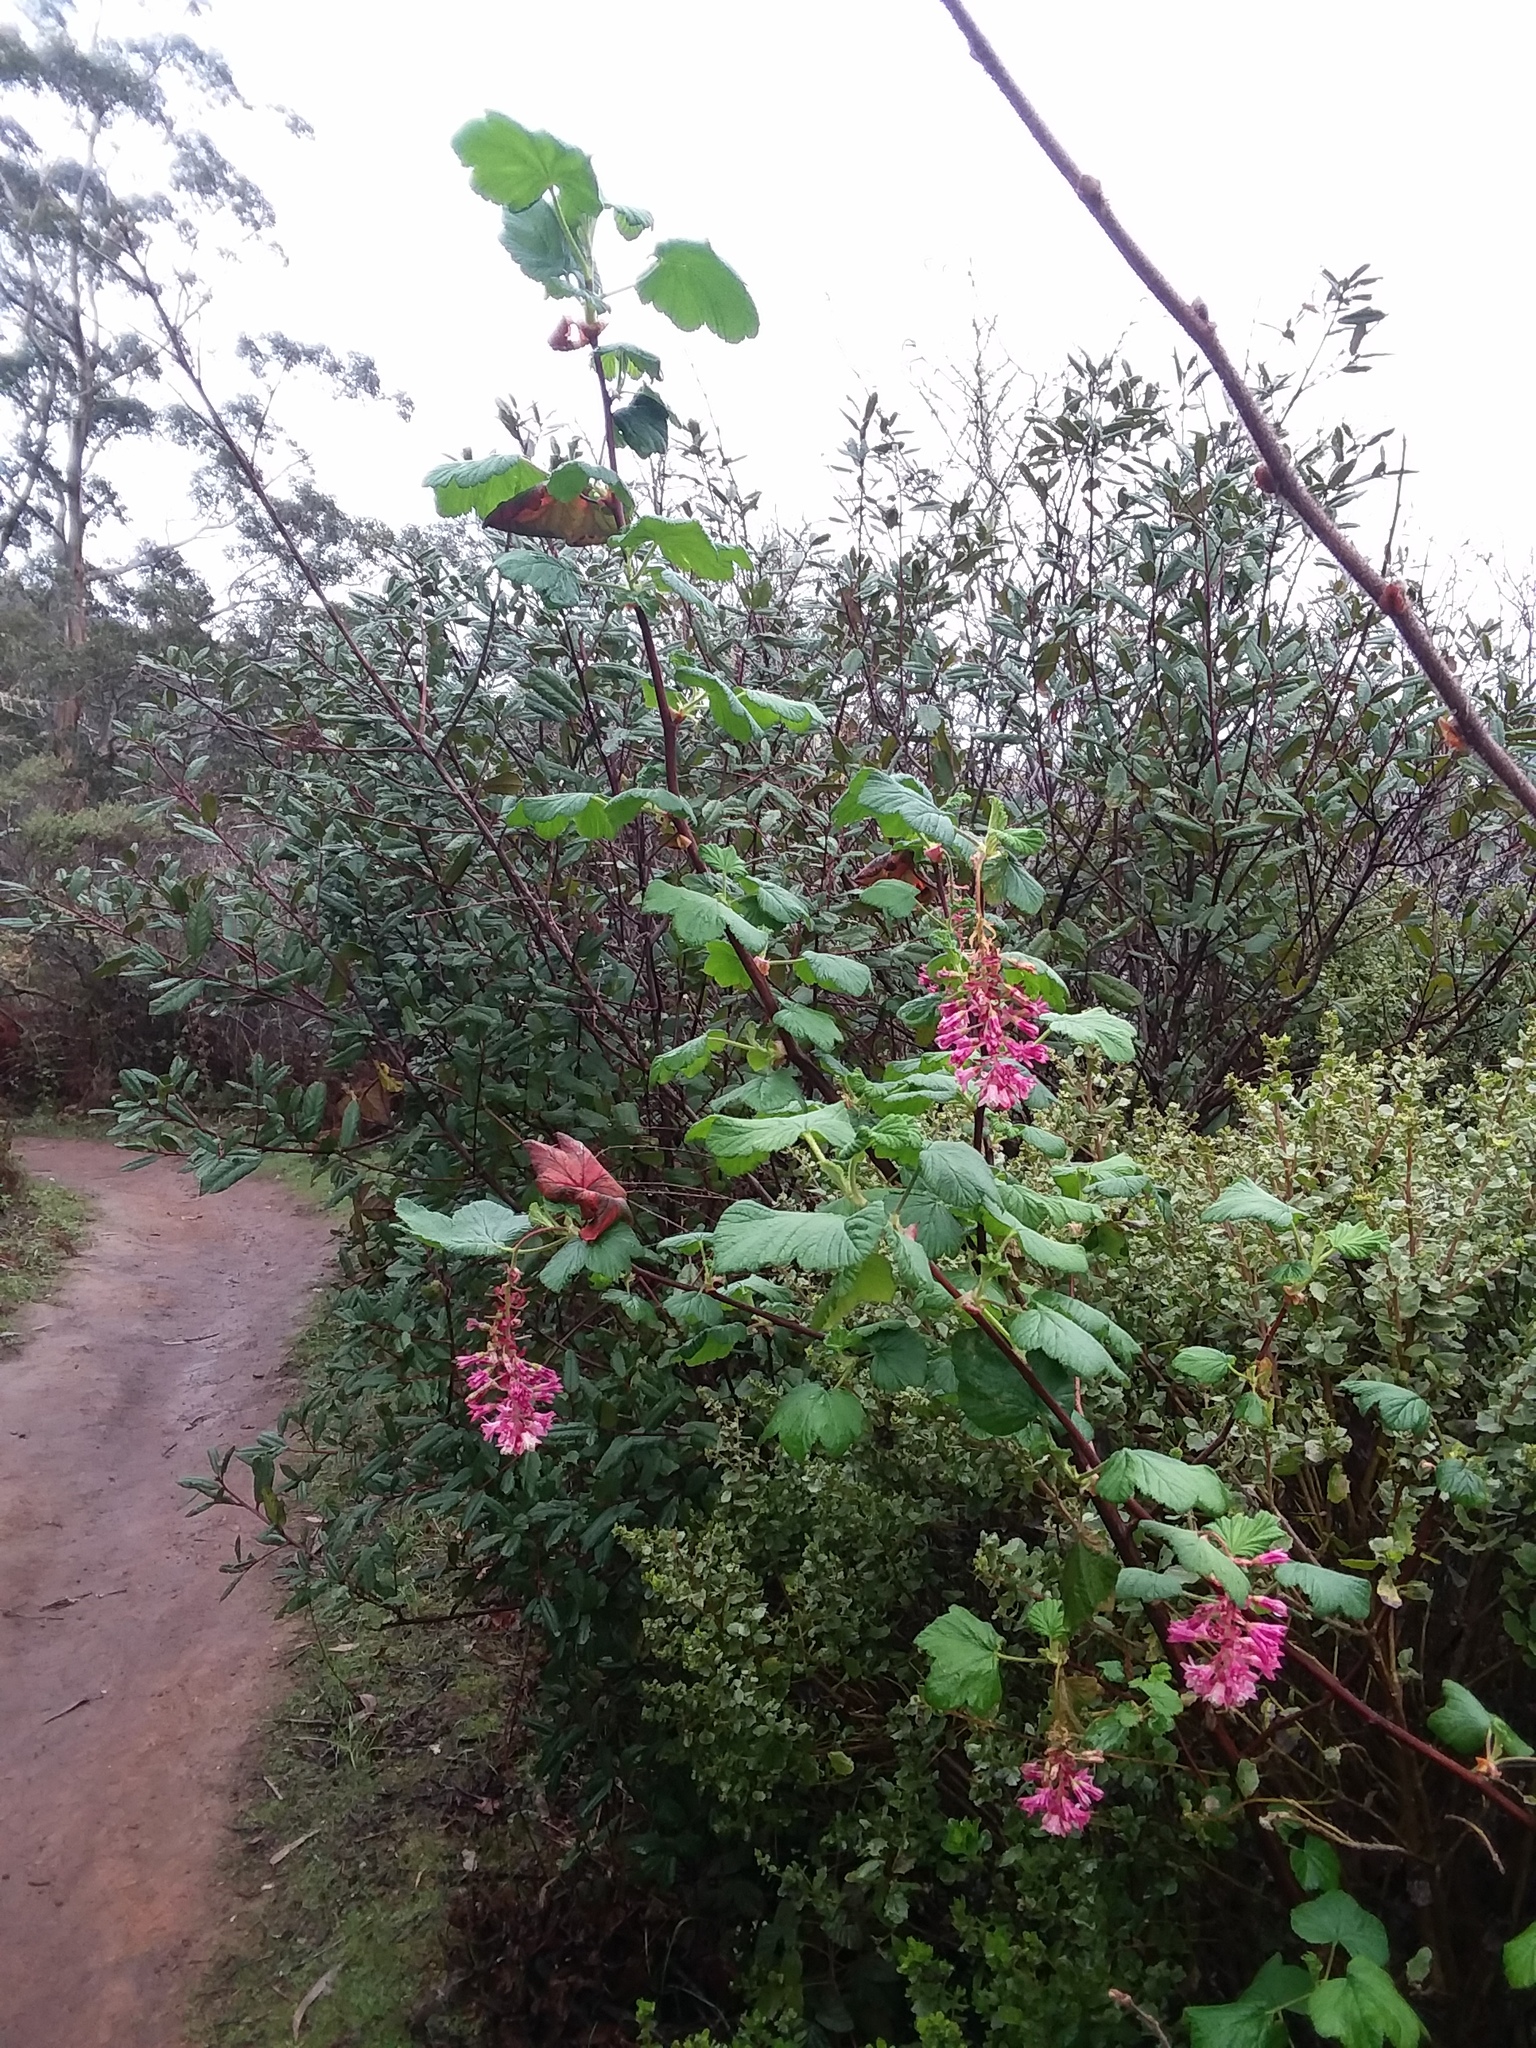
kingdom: Plantae
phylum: Tracheophyta
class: Magnoliopsida
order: Saxifragales
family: Grossulariaceae
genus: Ribes
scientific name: Ribes sanguineum
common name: Flowering currant
